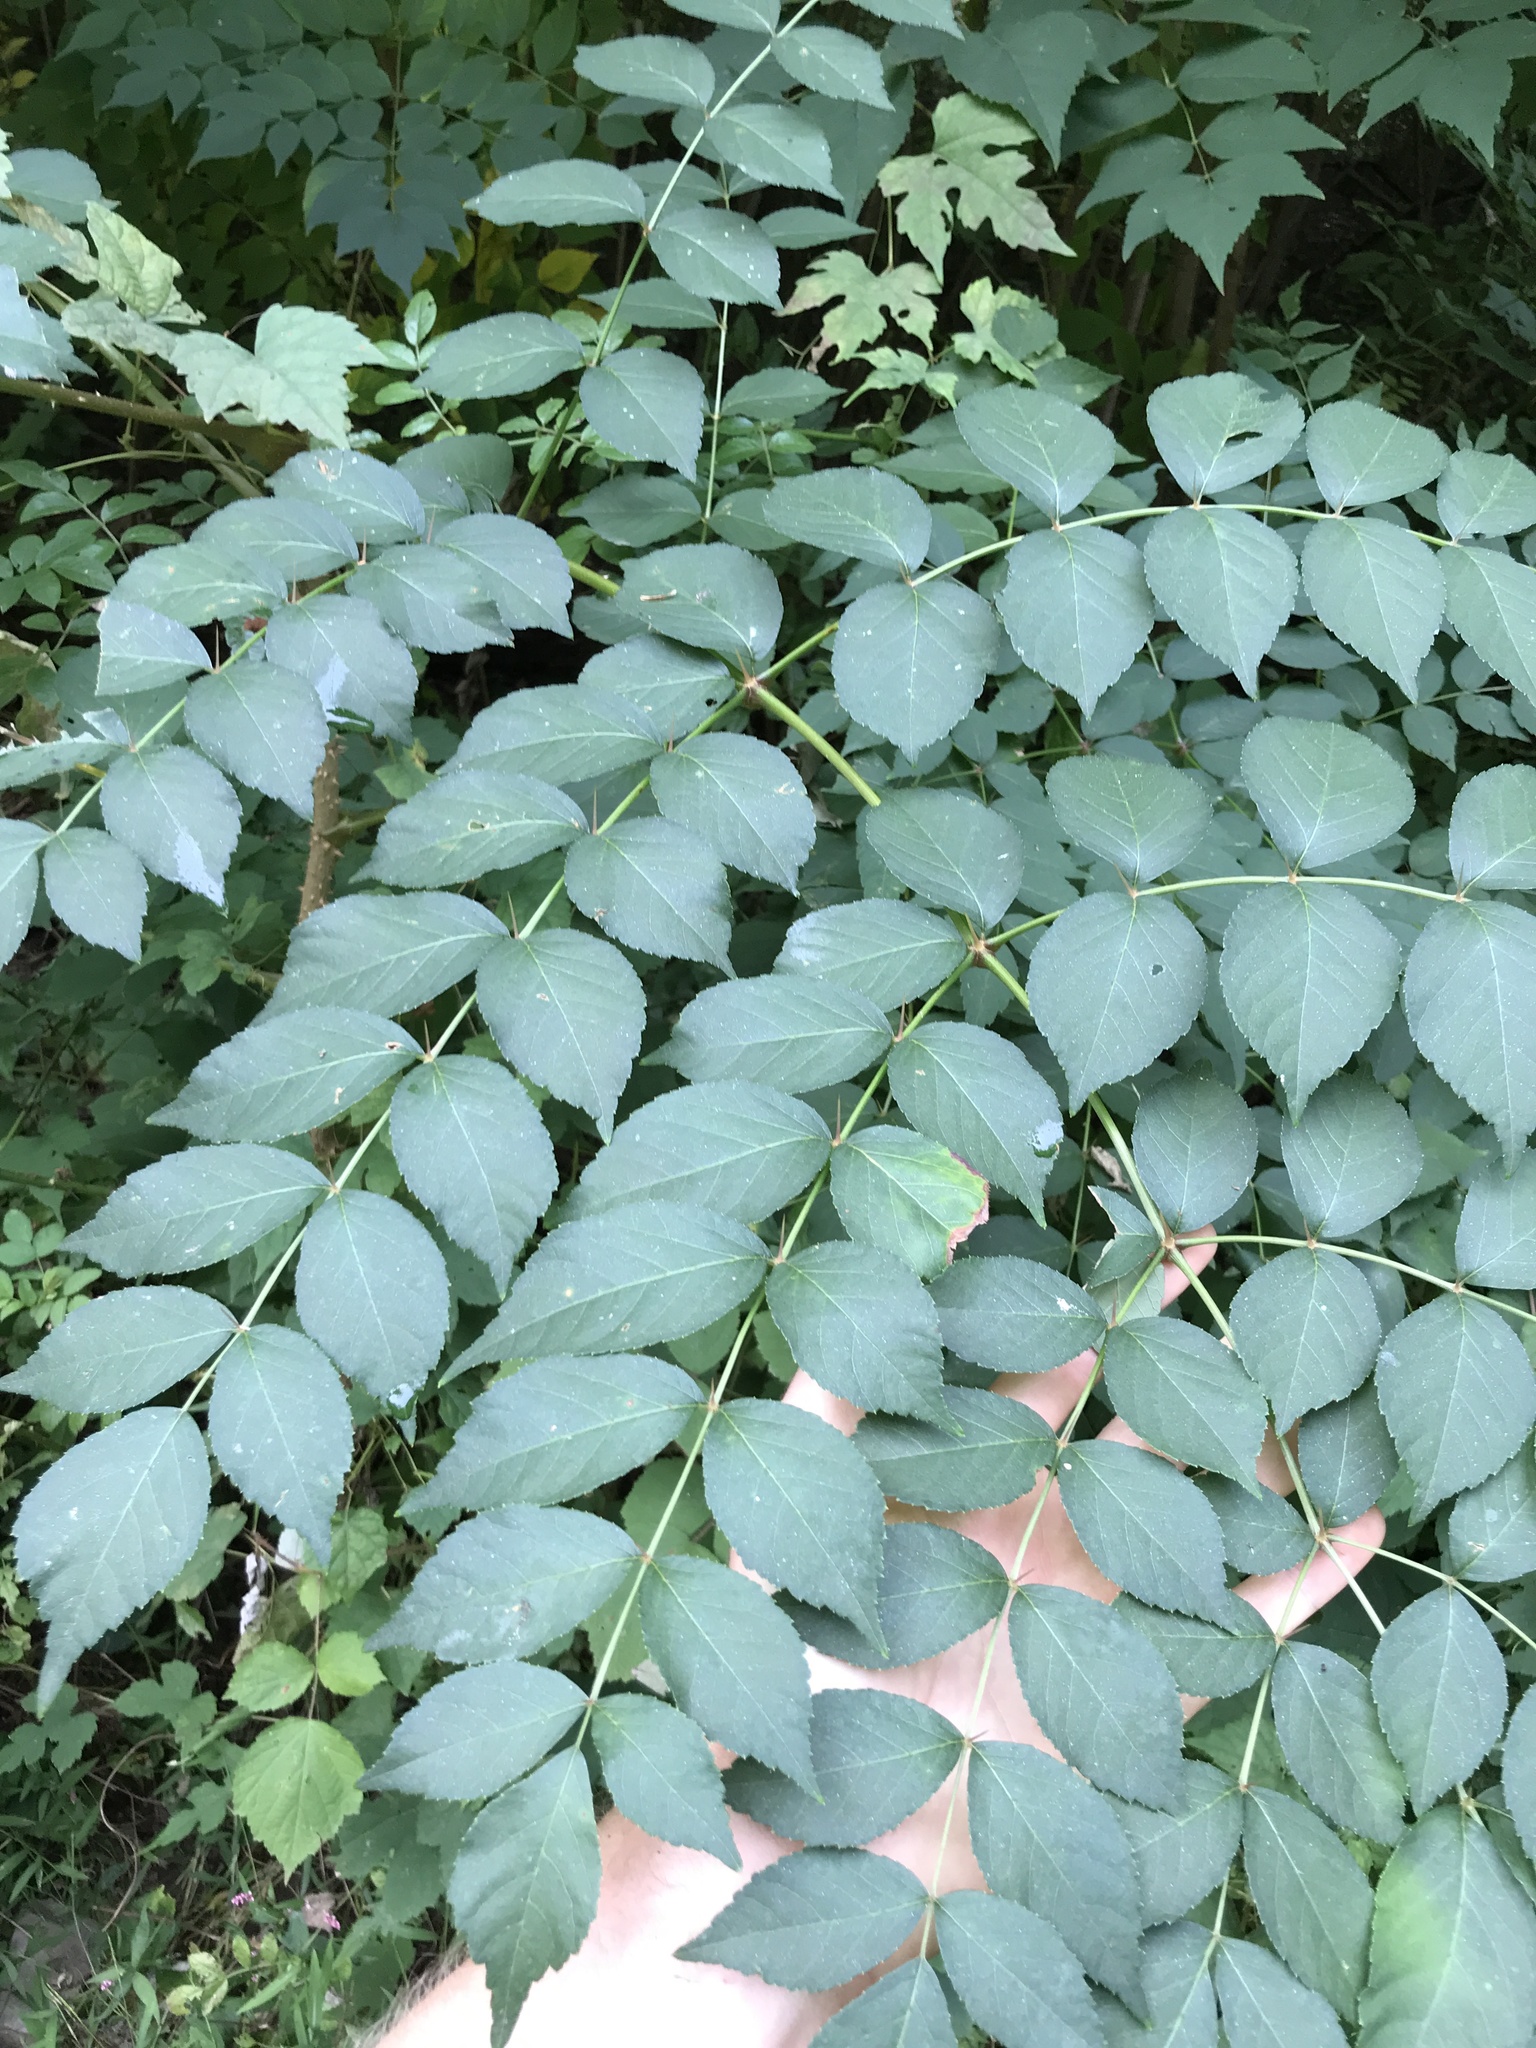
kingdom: Plantae
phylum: Tracheophyta
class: Magnoliopsida
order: Apiales
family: Araliaceae
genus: Aralia
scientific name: Aralia elata
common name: Japanese angelica-tree
